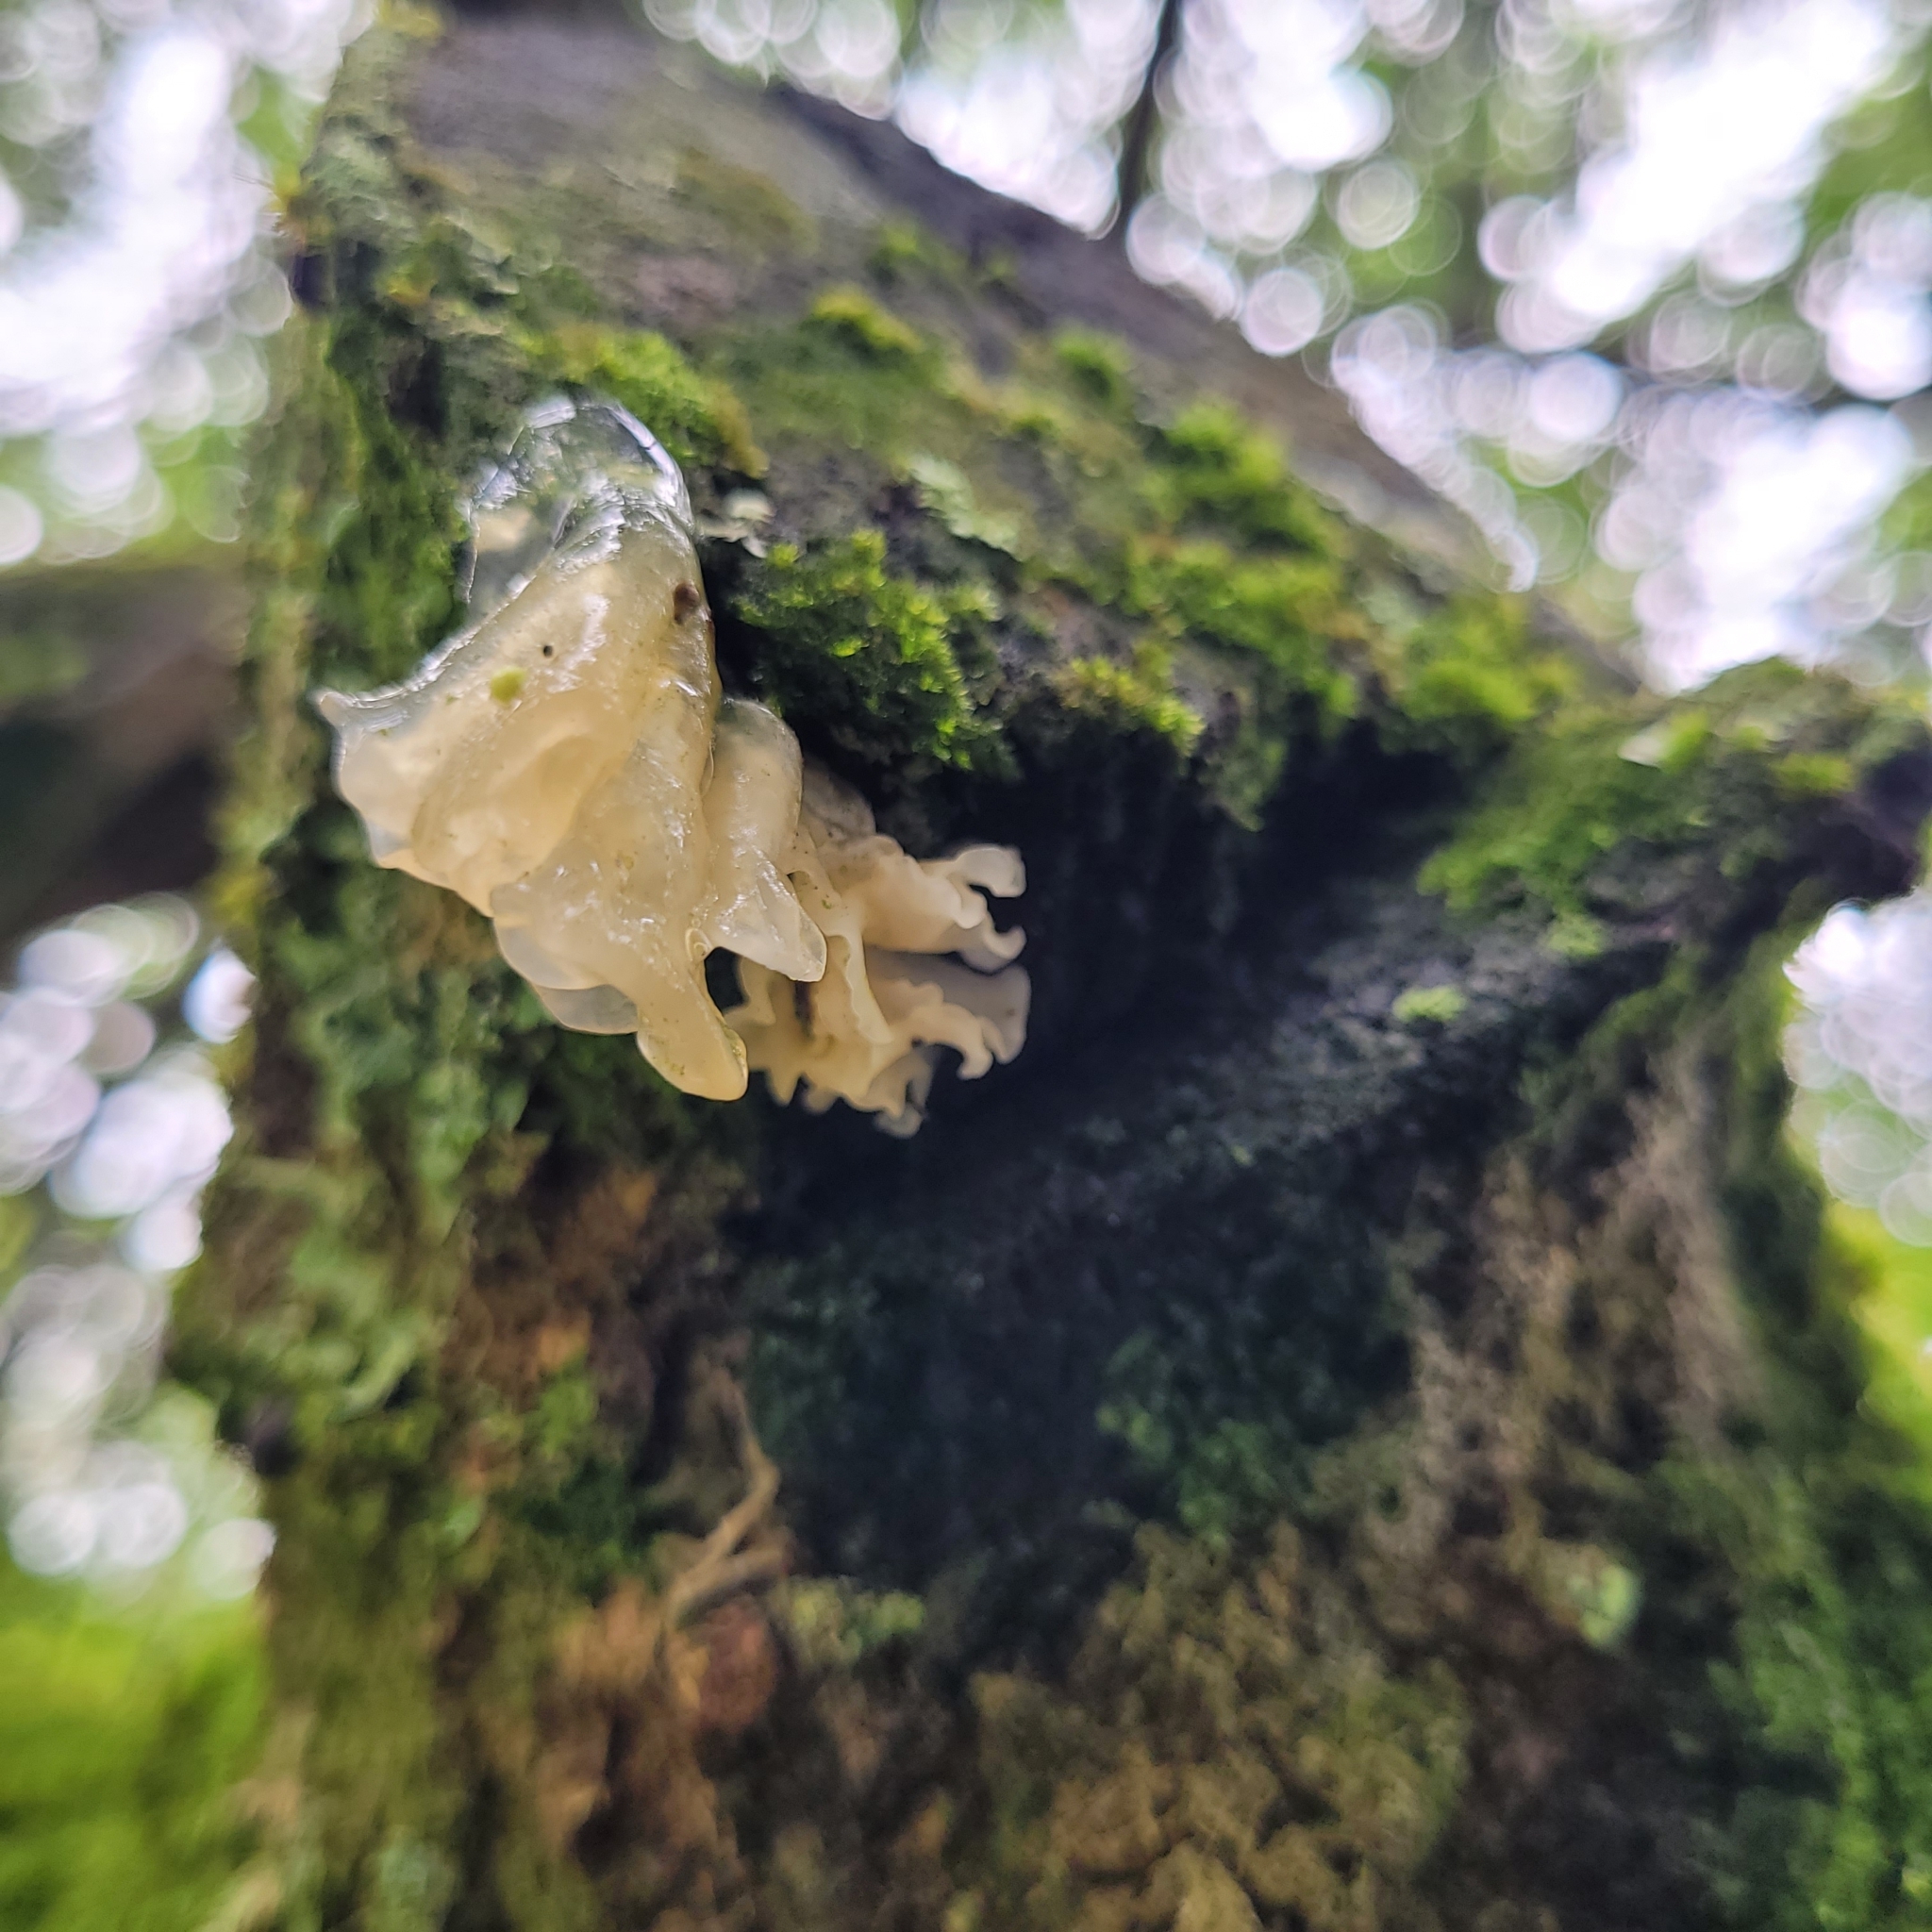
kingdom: Fungi
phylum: Basidiomycota
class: Tremellomycetes
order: Tremellales
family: Tremellaceae
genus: Tremella
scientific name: Tremella fuciformis
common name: Snow fungus
